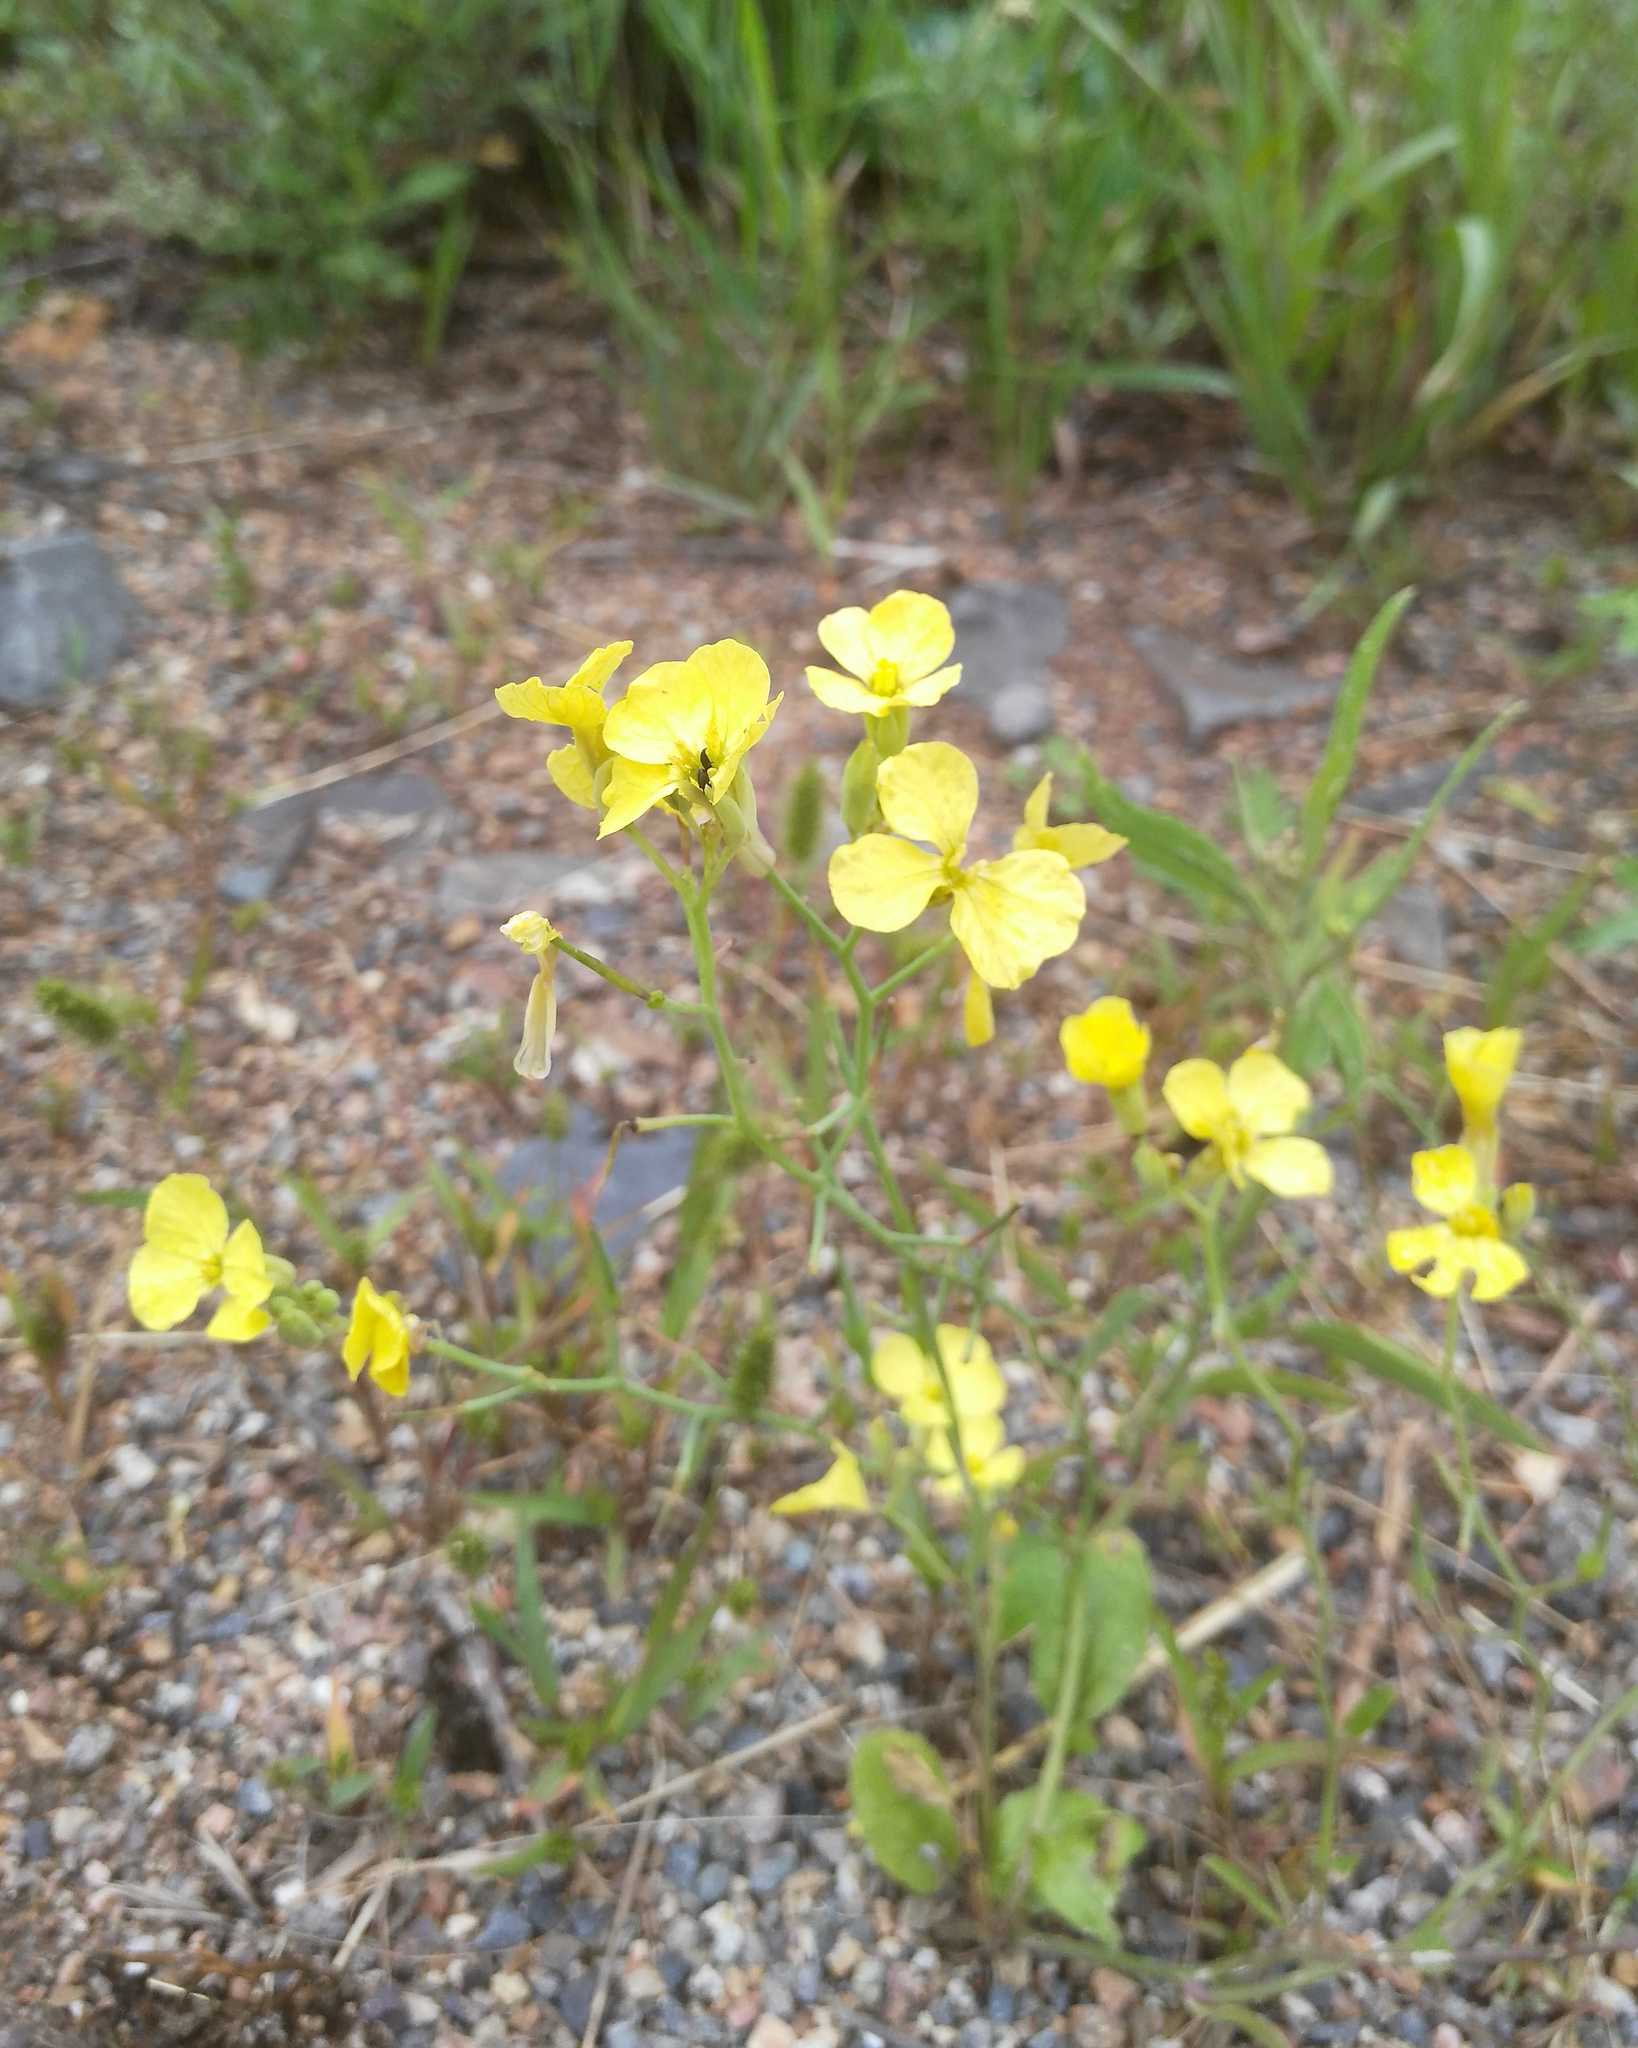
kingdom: Plantae
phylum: Tracheophyta
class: Magnoliopsida
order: Brassicales
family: Brassicaceae
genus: Raphanus
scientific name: Raphanus raphanistrum
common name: Wild radish
